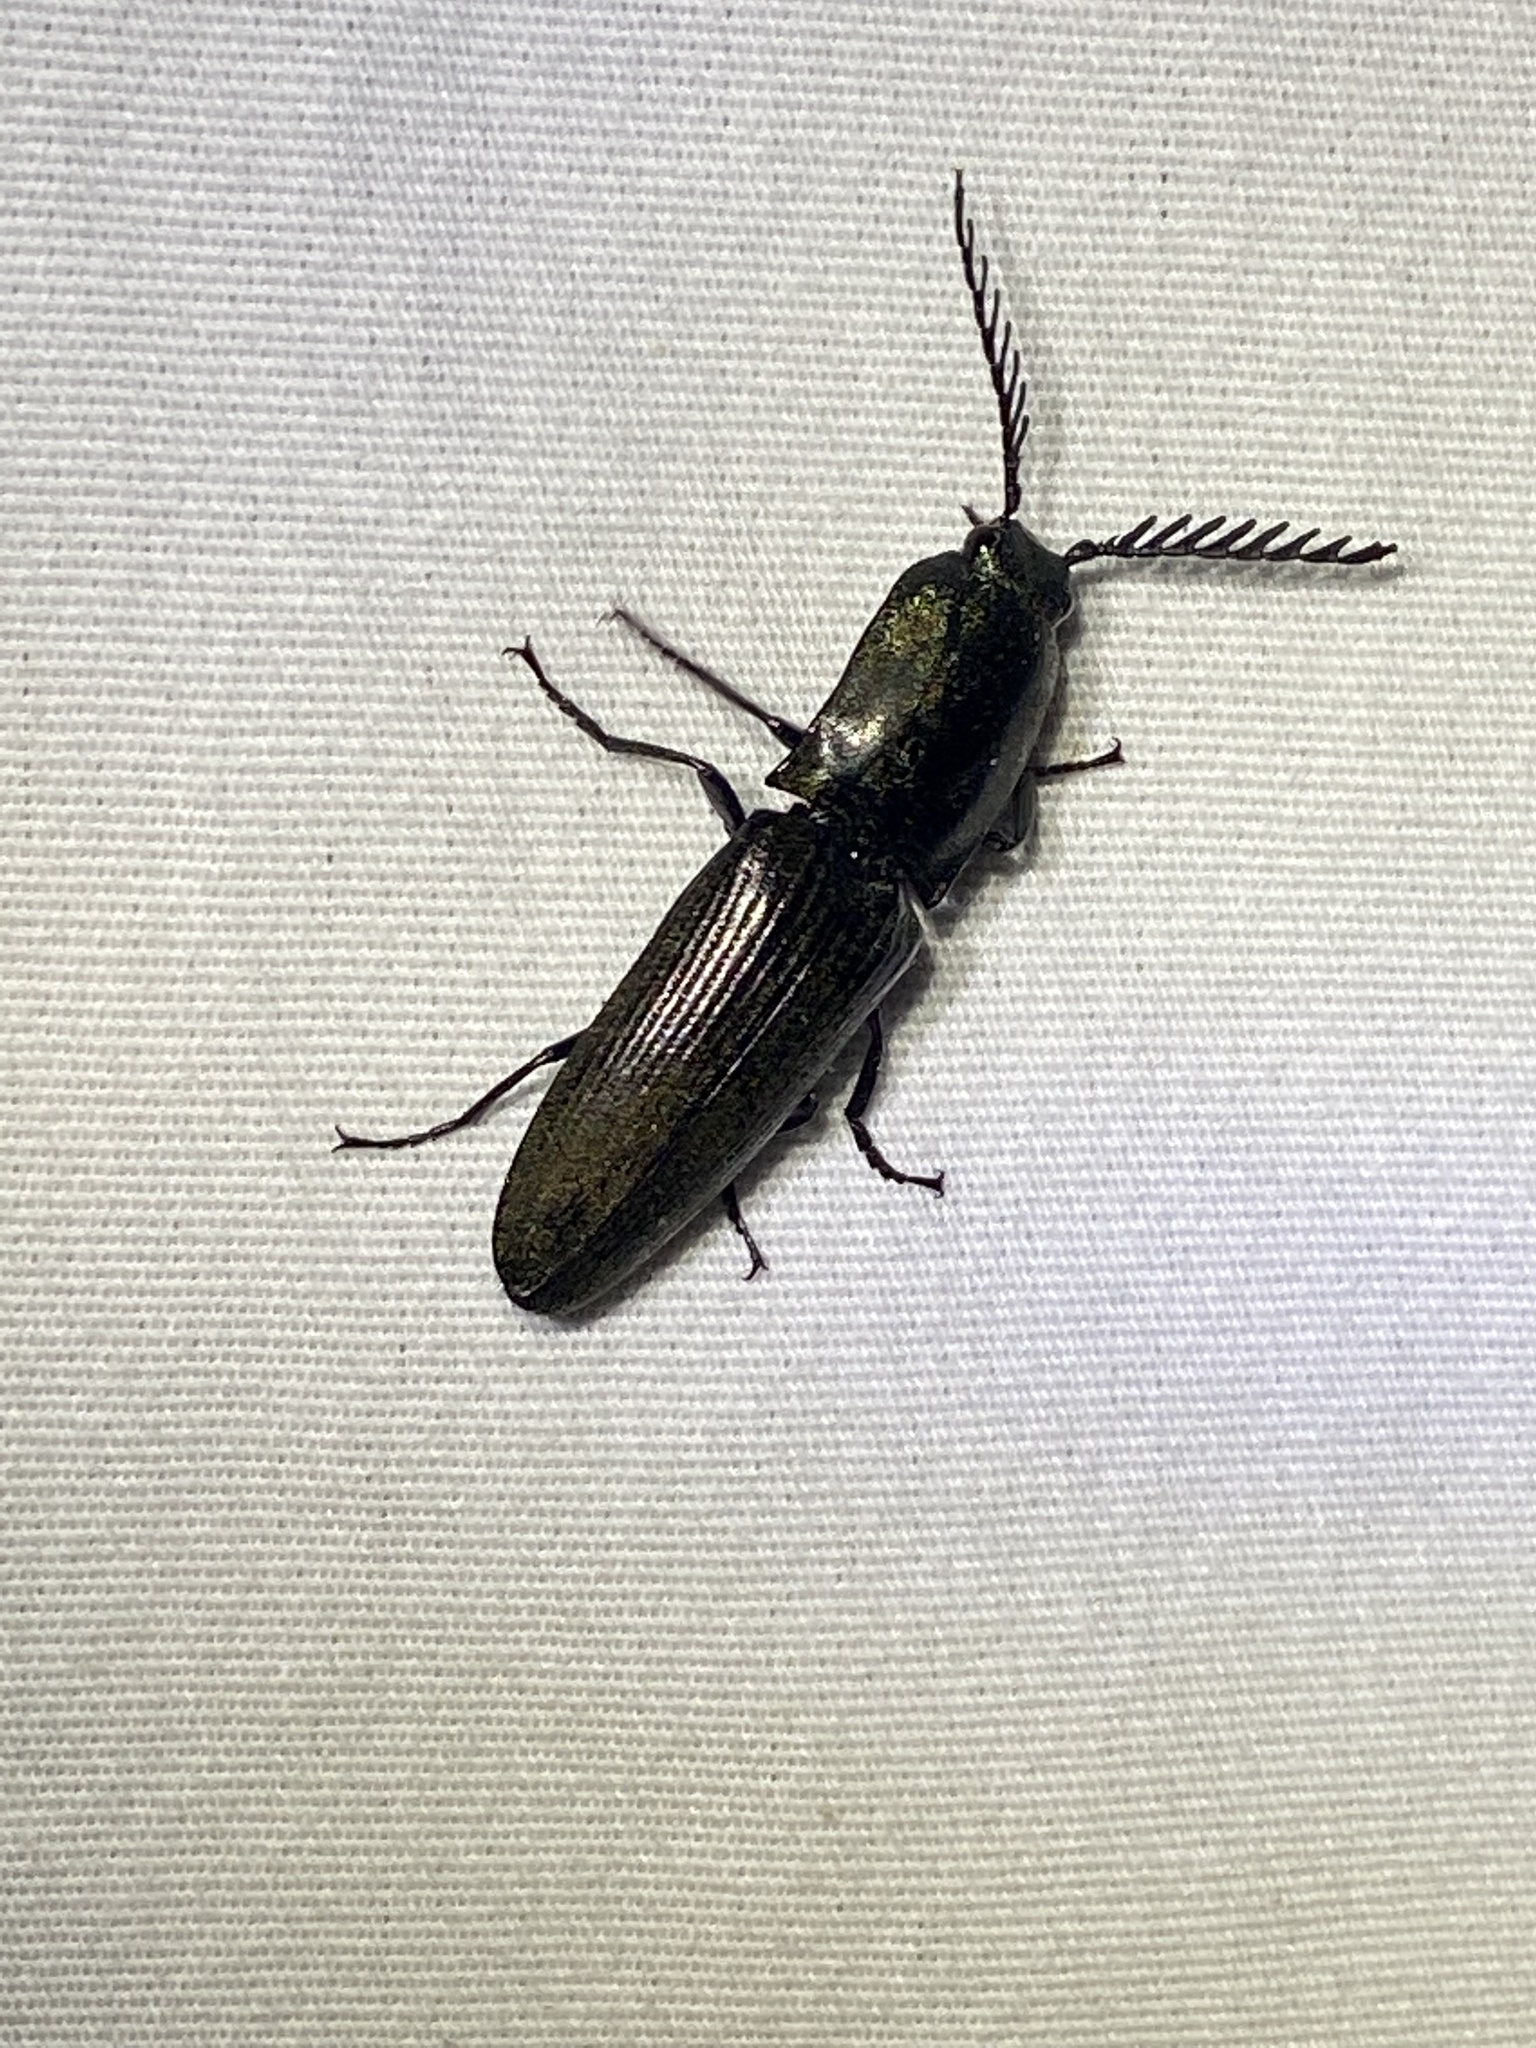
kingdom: Animalia
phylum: Arthropoda
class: Insecta
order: Coleoptera
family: Elateridae
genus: Chalcolepidius
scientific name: Chalcolepidius
